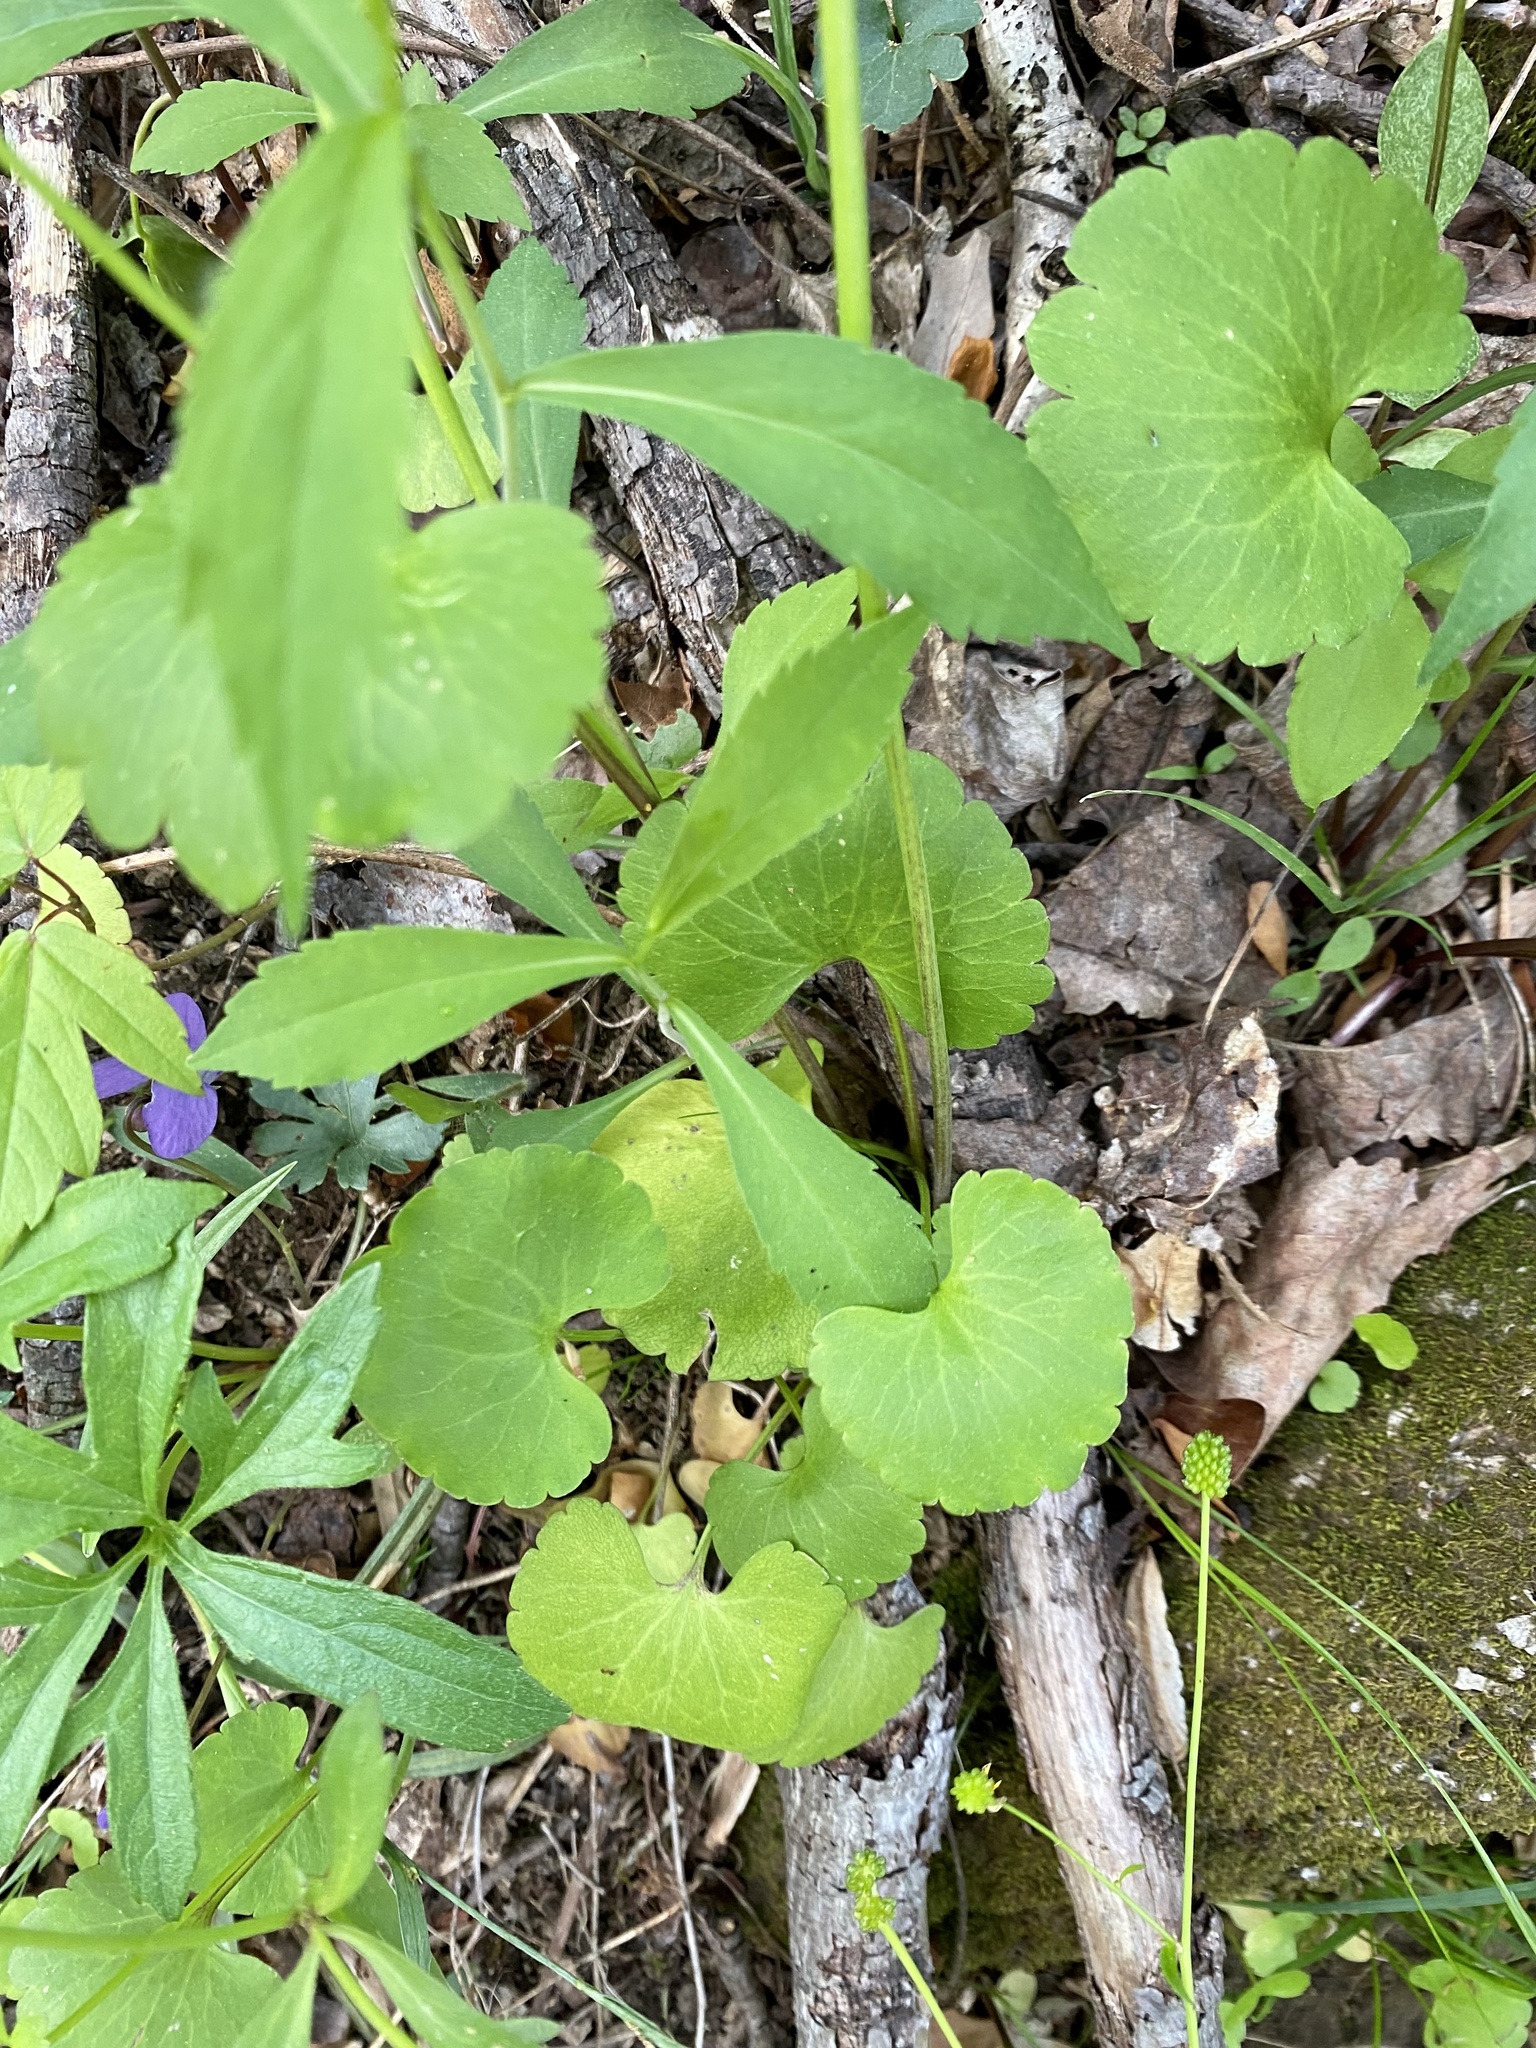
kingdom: Plantae
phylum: Tracheophyta
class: Magnoliopsida
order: Ranunculales
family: Ranunculaceae
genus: Ranunculus
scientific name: Ranunculus abortivus
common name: Early wood buttercup
